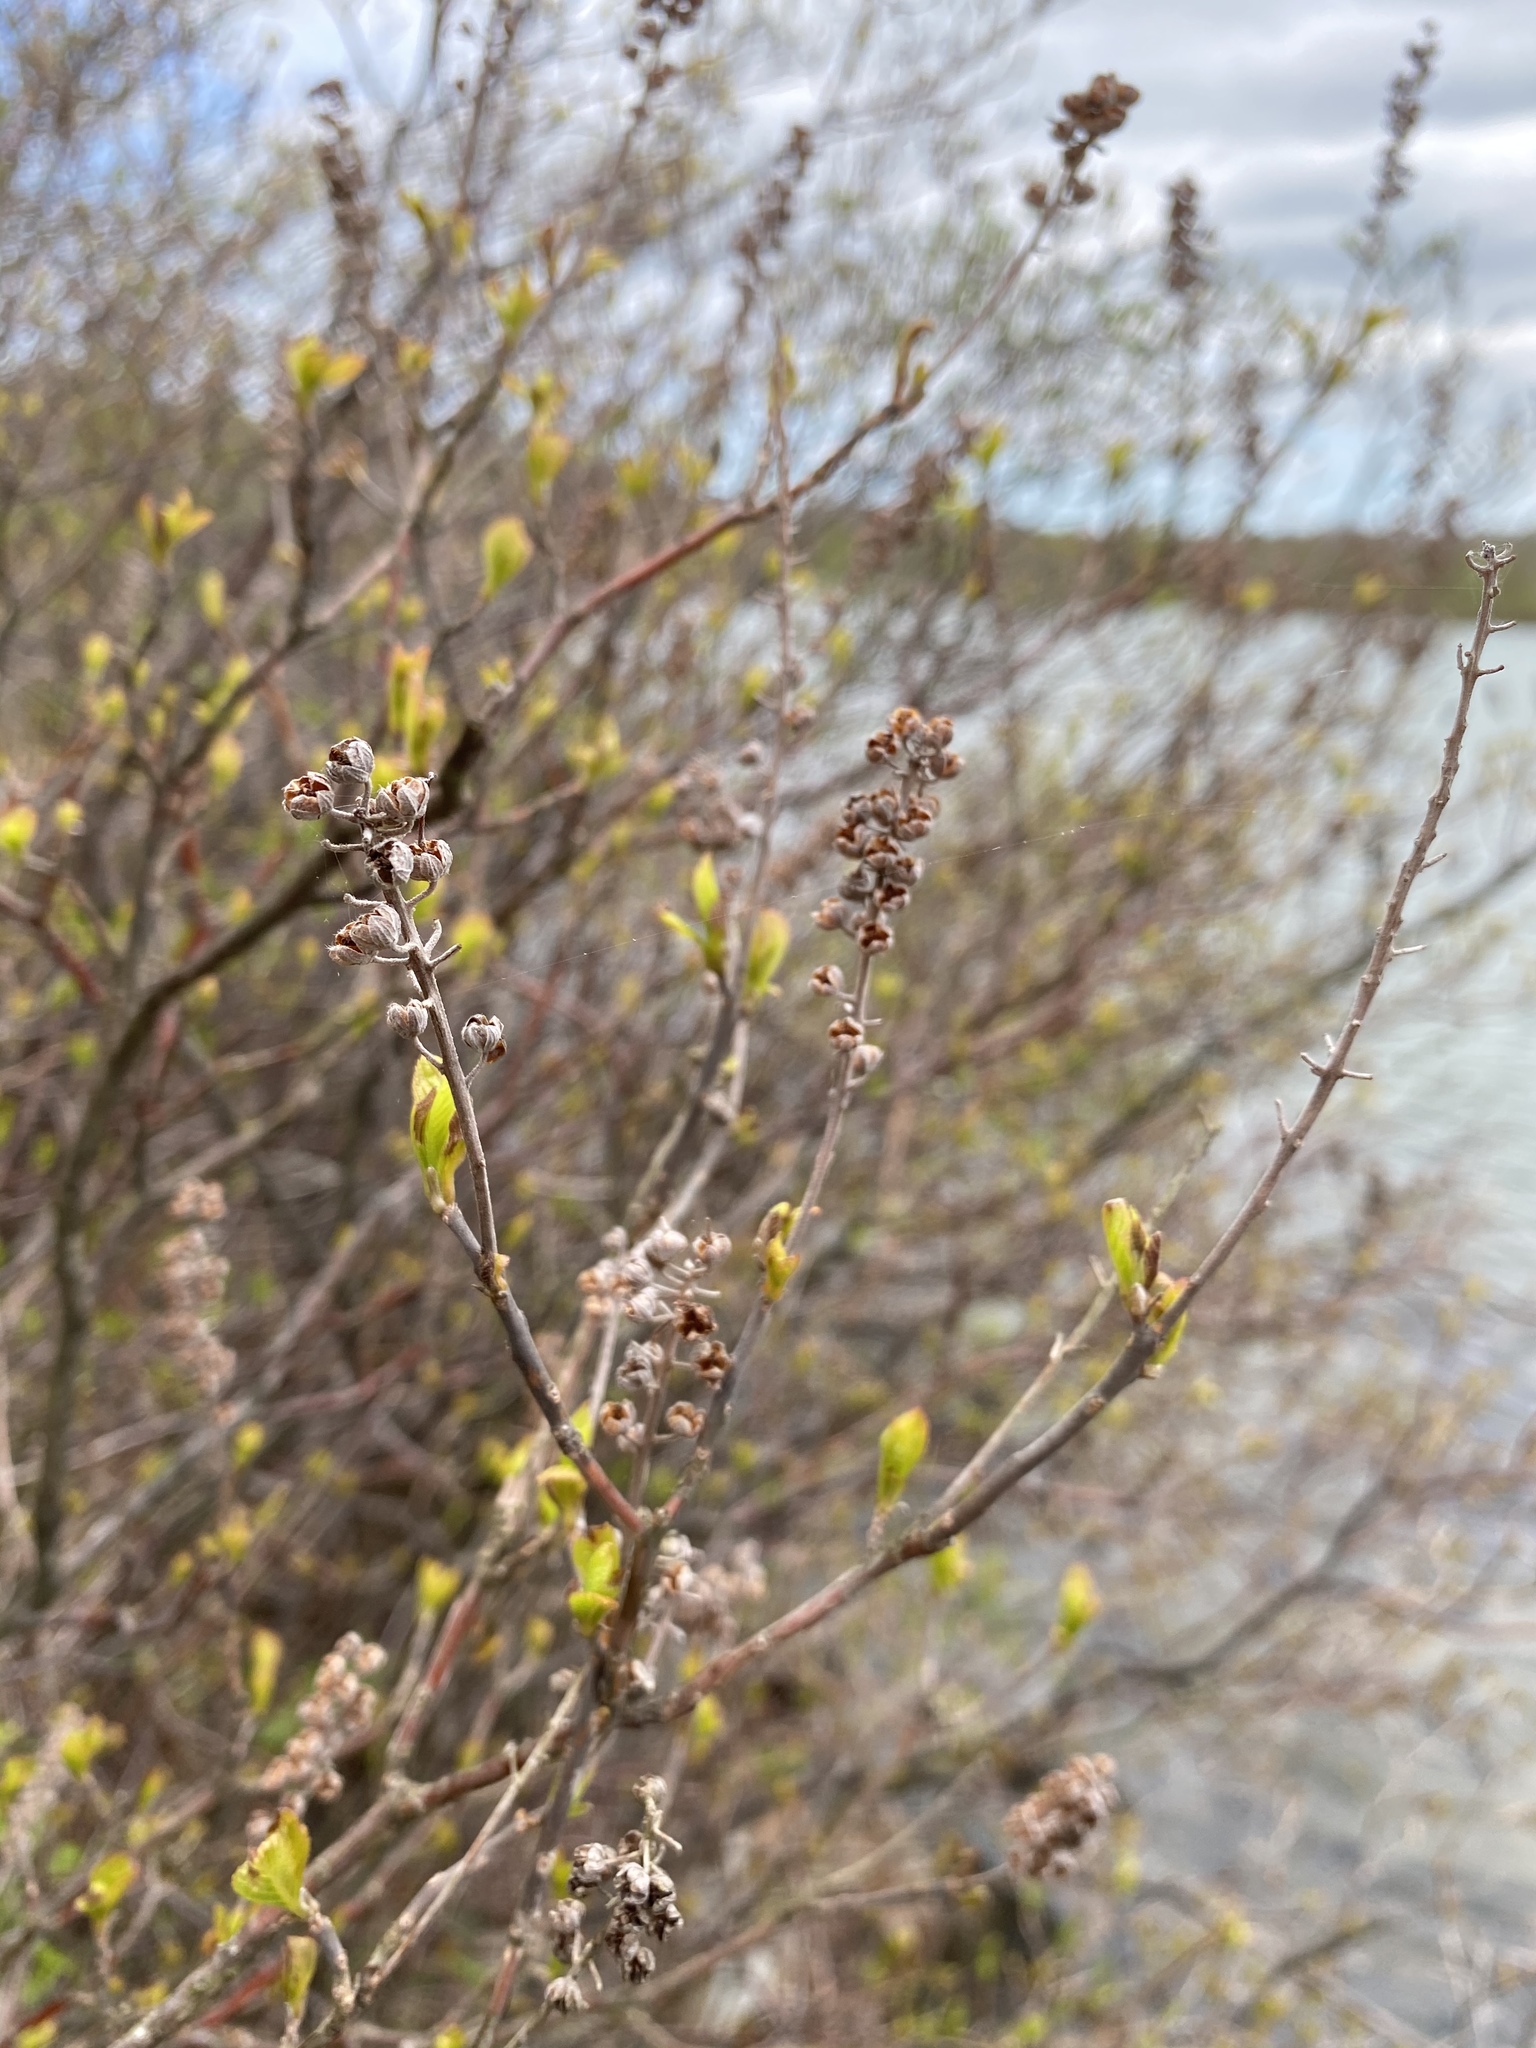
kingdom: Plantae
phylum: Tracheophyta
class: Magnoliopsida
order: Ericales
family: Clethraceae
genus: Clethra
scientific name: Clethra alnifolia
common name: Sweet pepperbush
